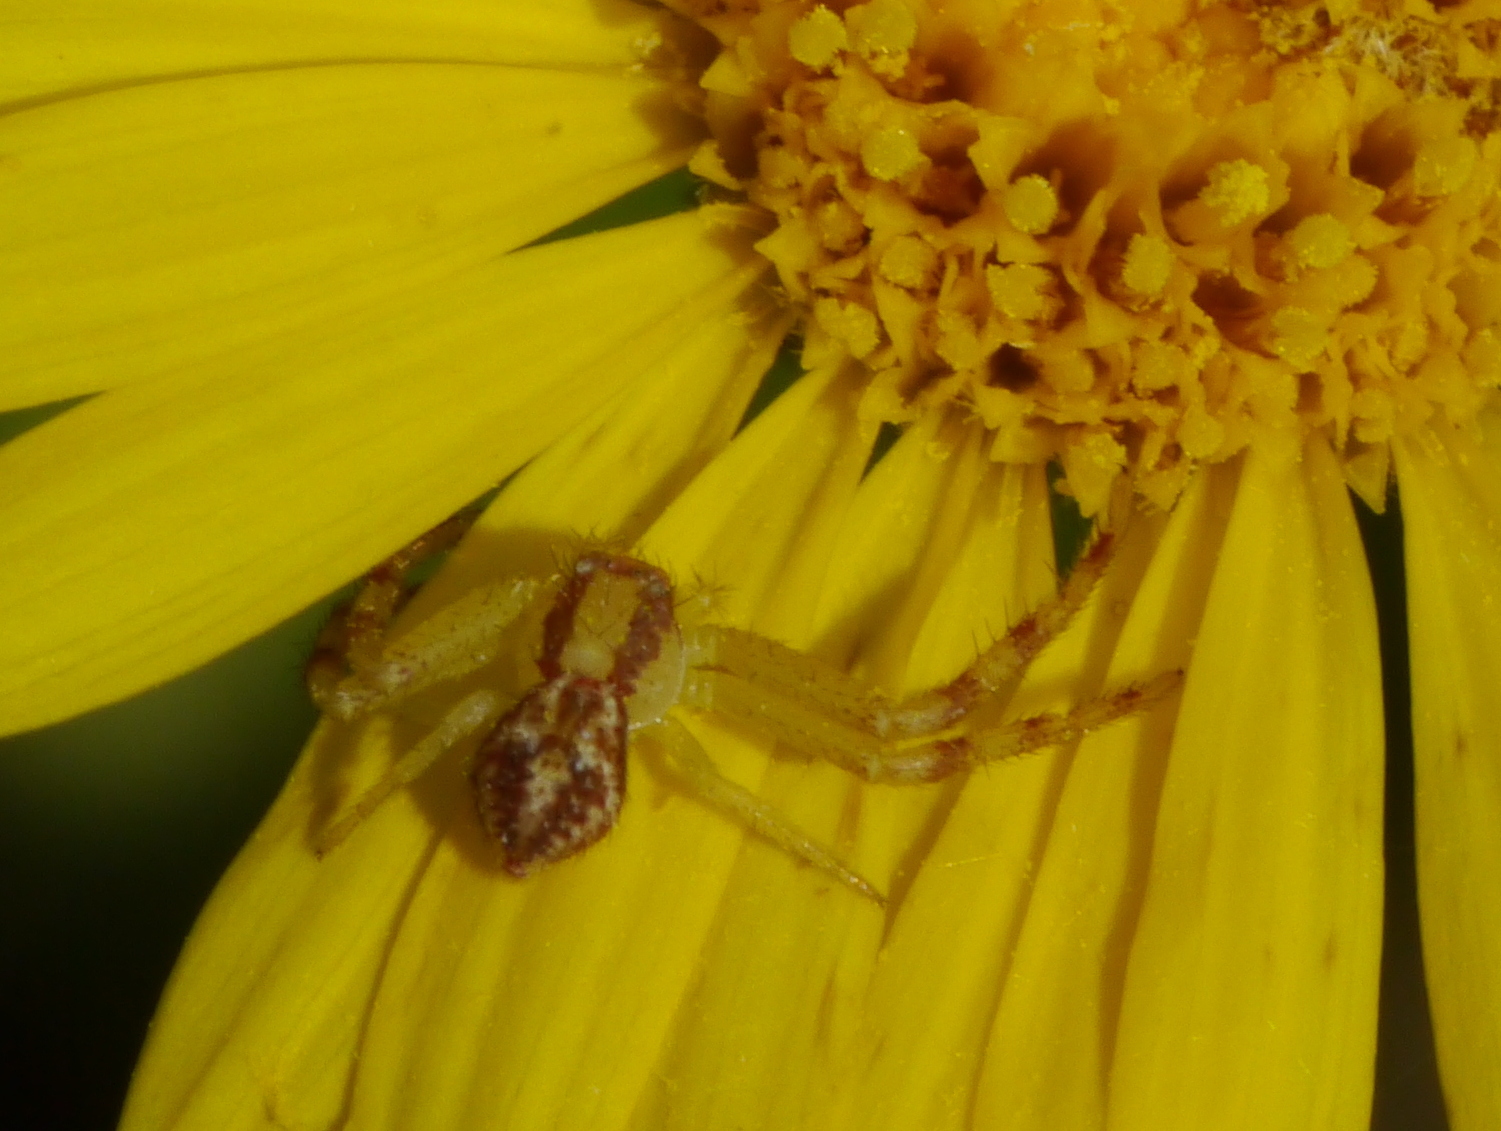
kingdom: Animalia
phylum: Arthropoda
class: Arachnida
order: Araneae
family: Thomisidae
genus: Mecaphesa
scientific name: Mecaphesa asperata
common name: Crab spiders
